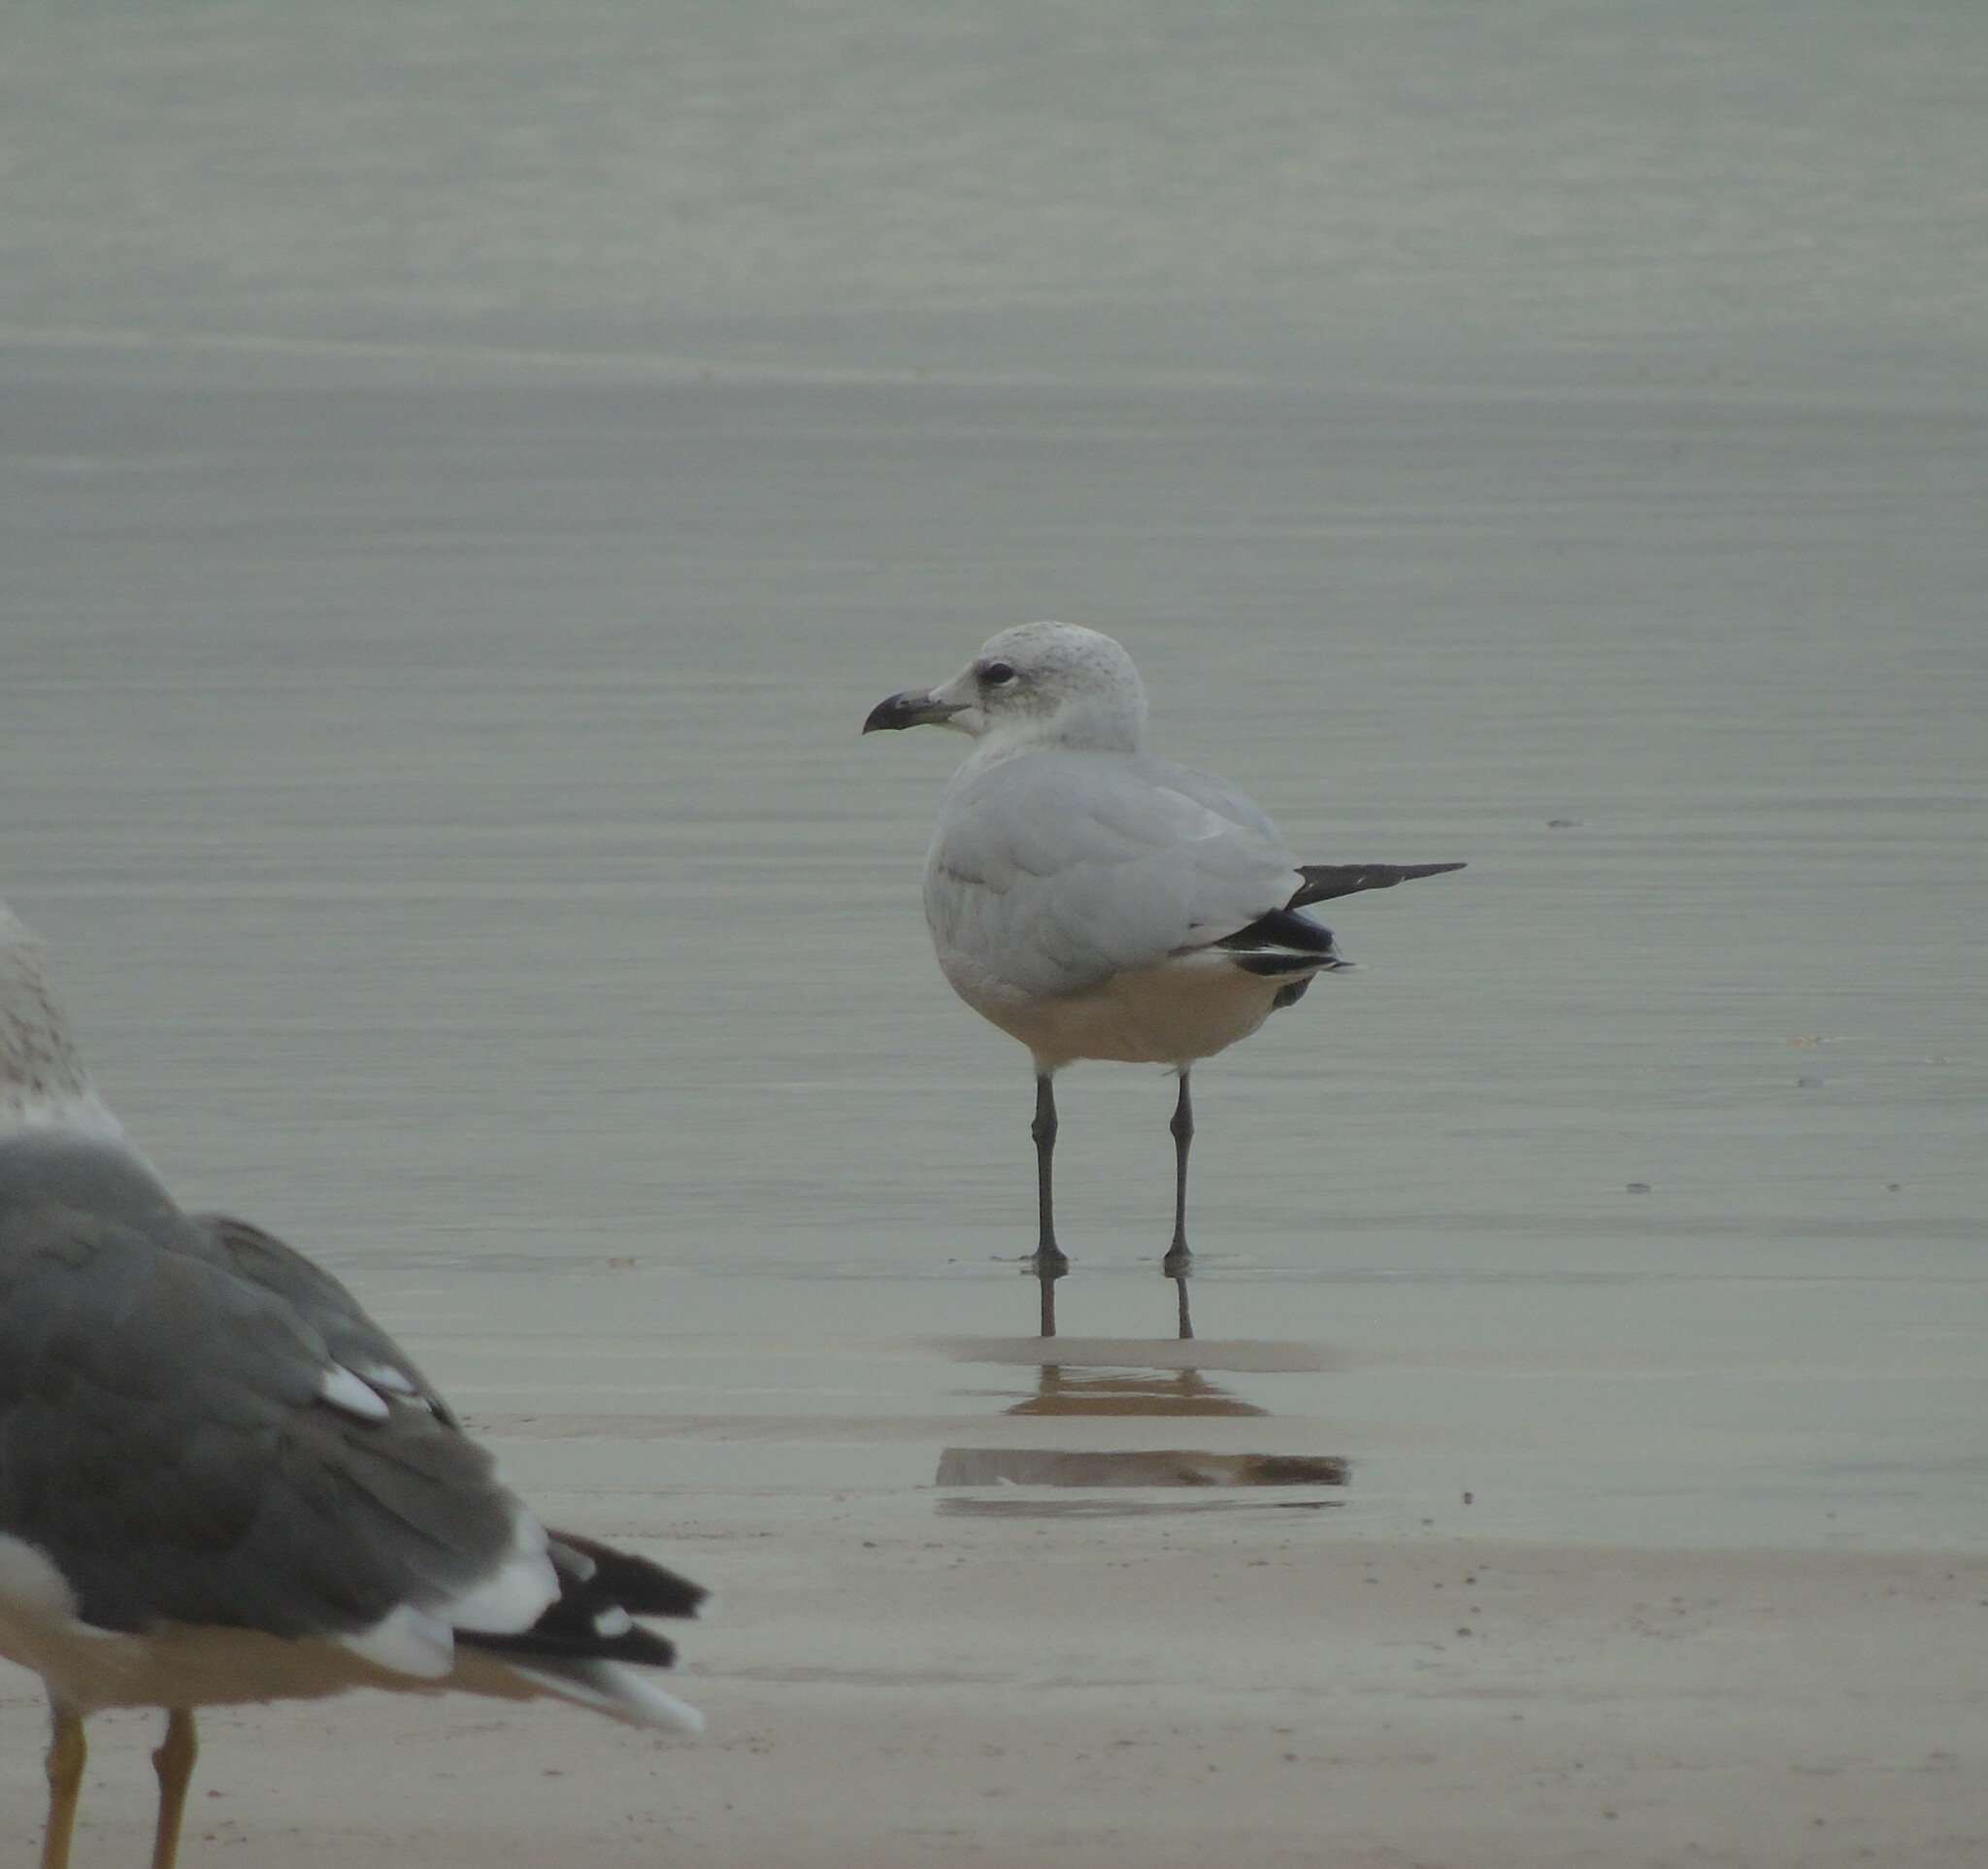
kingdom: Animalia
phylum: Chordata
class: Aves
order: Charadriiformes
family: Laridae
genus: Ichthyaetus
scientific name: Ichthyaetus audouinii
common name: Audouin's gull
